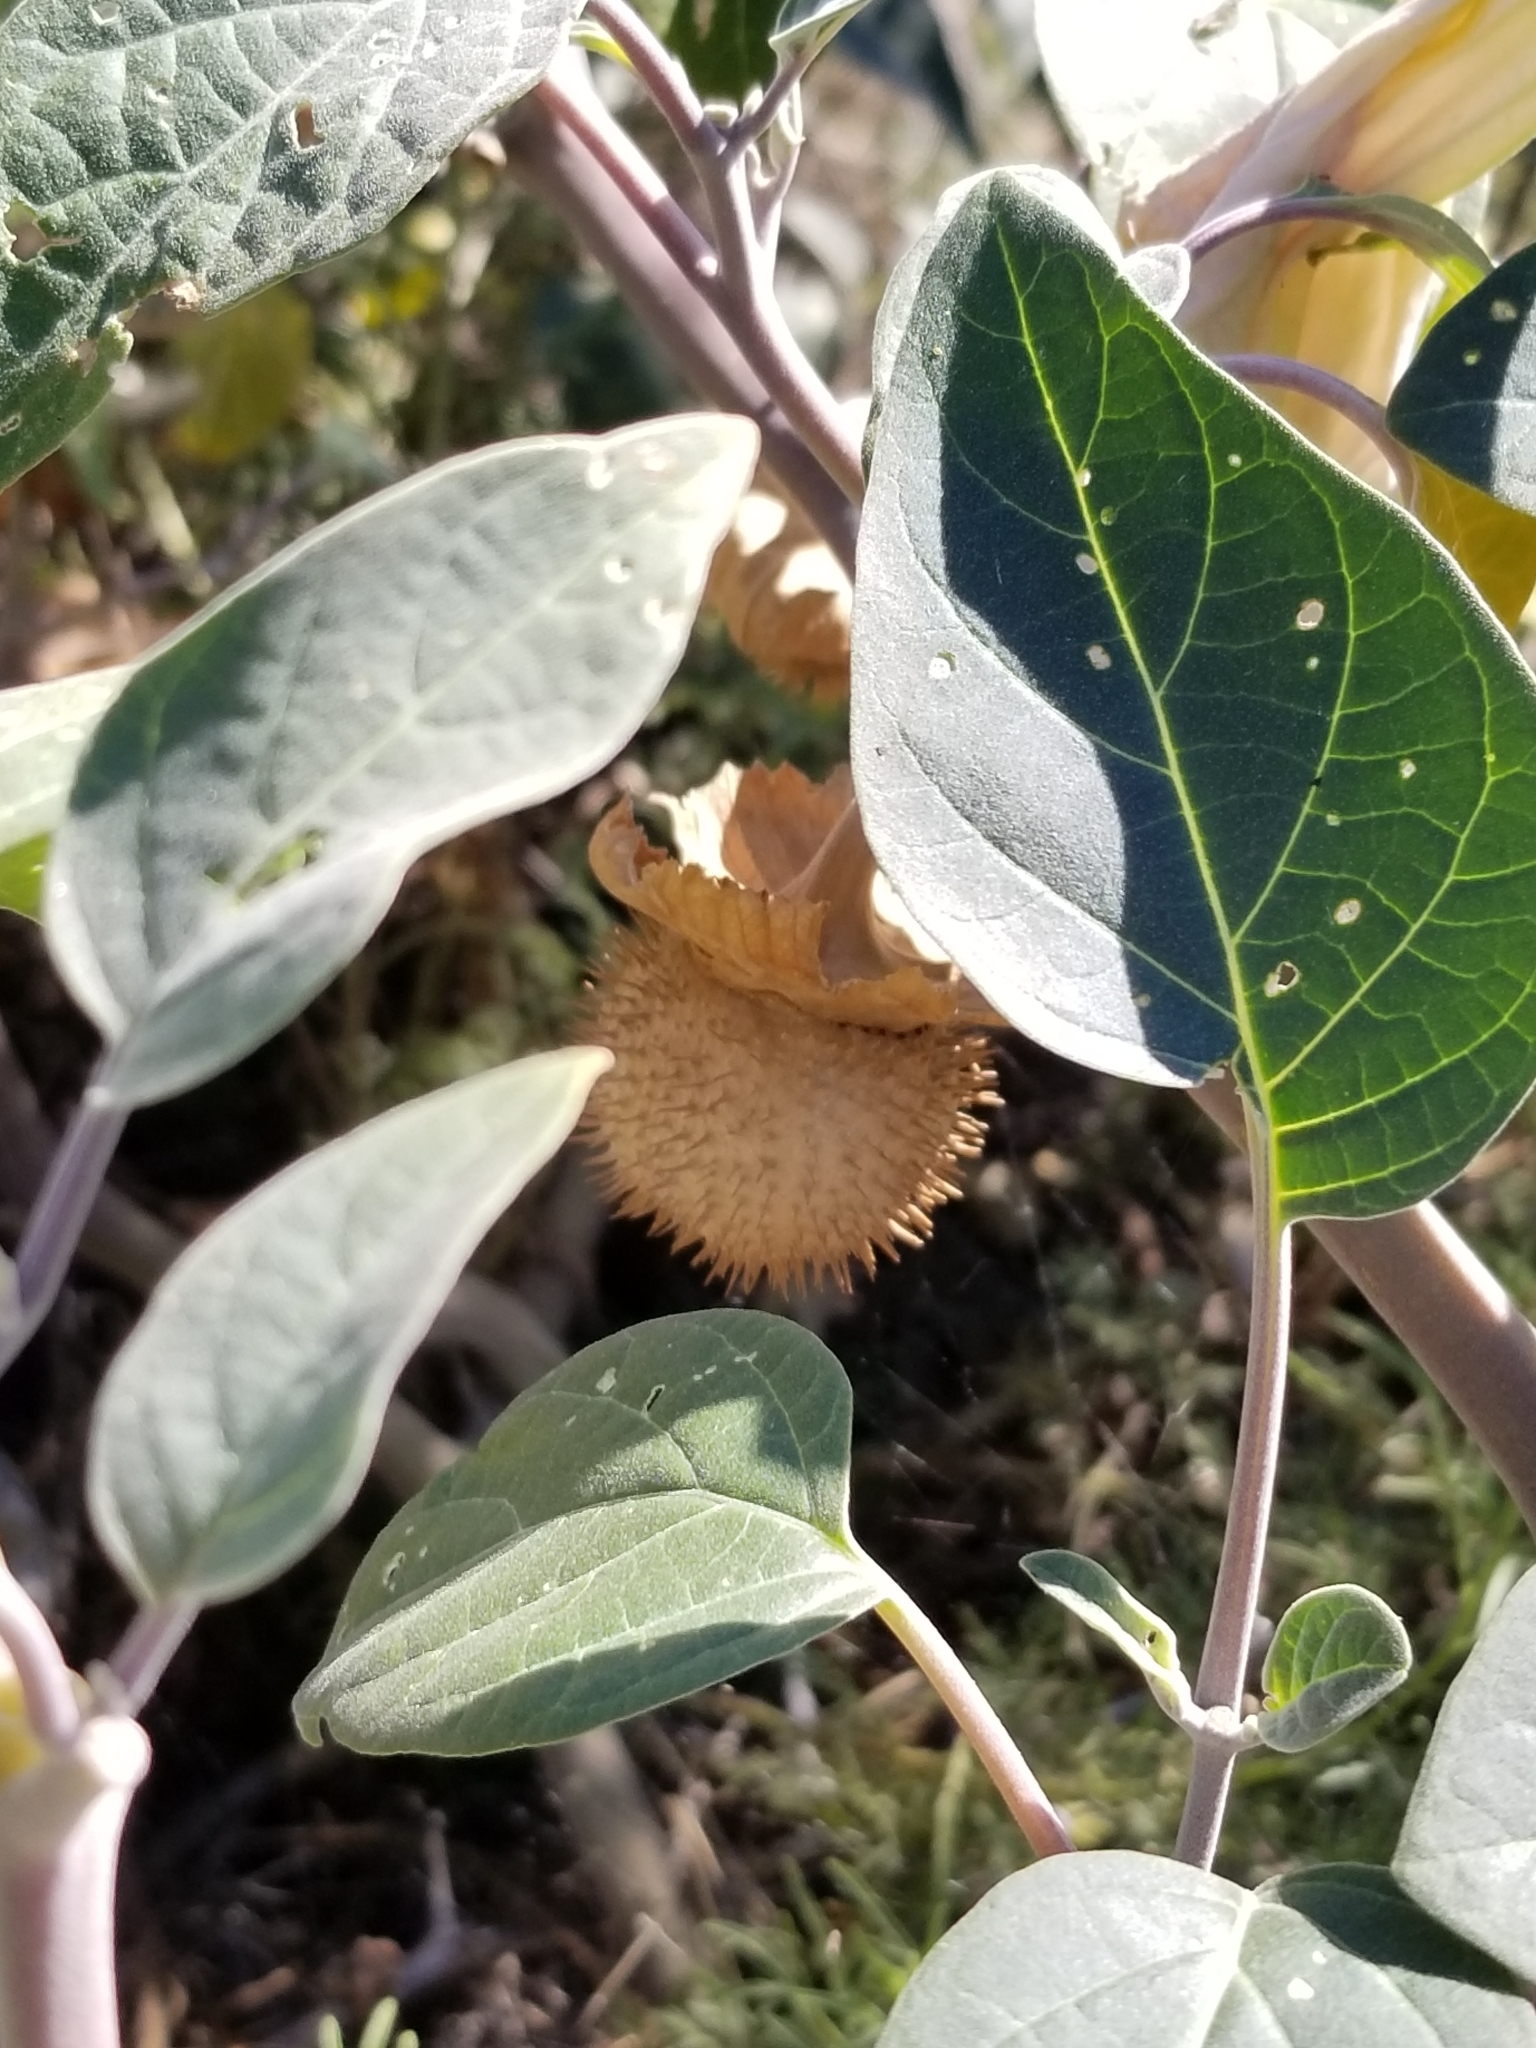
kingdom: Plantae
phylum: Tracheophyta
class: Magnoliopsida
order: Solanales
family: Solanaceae
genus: Datura
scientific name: Datura wrightii
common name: Sacred thorn-apple
